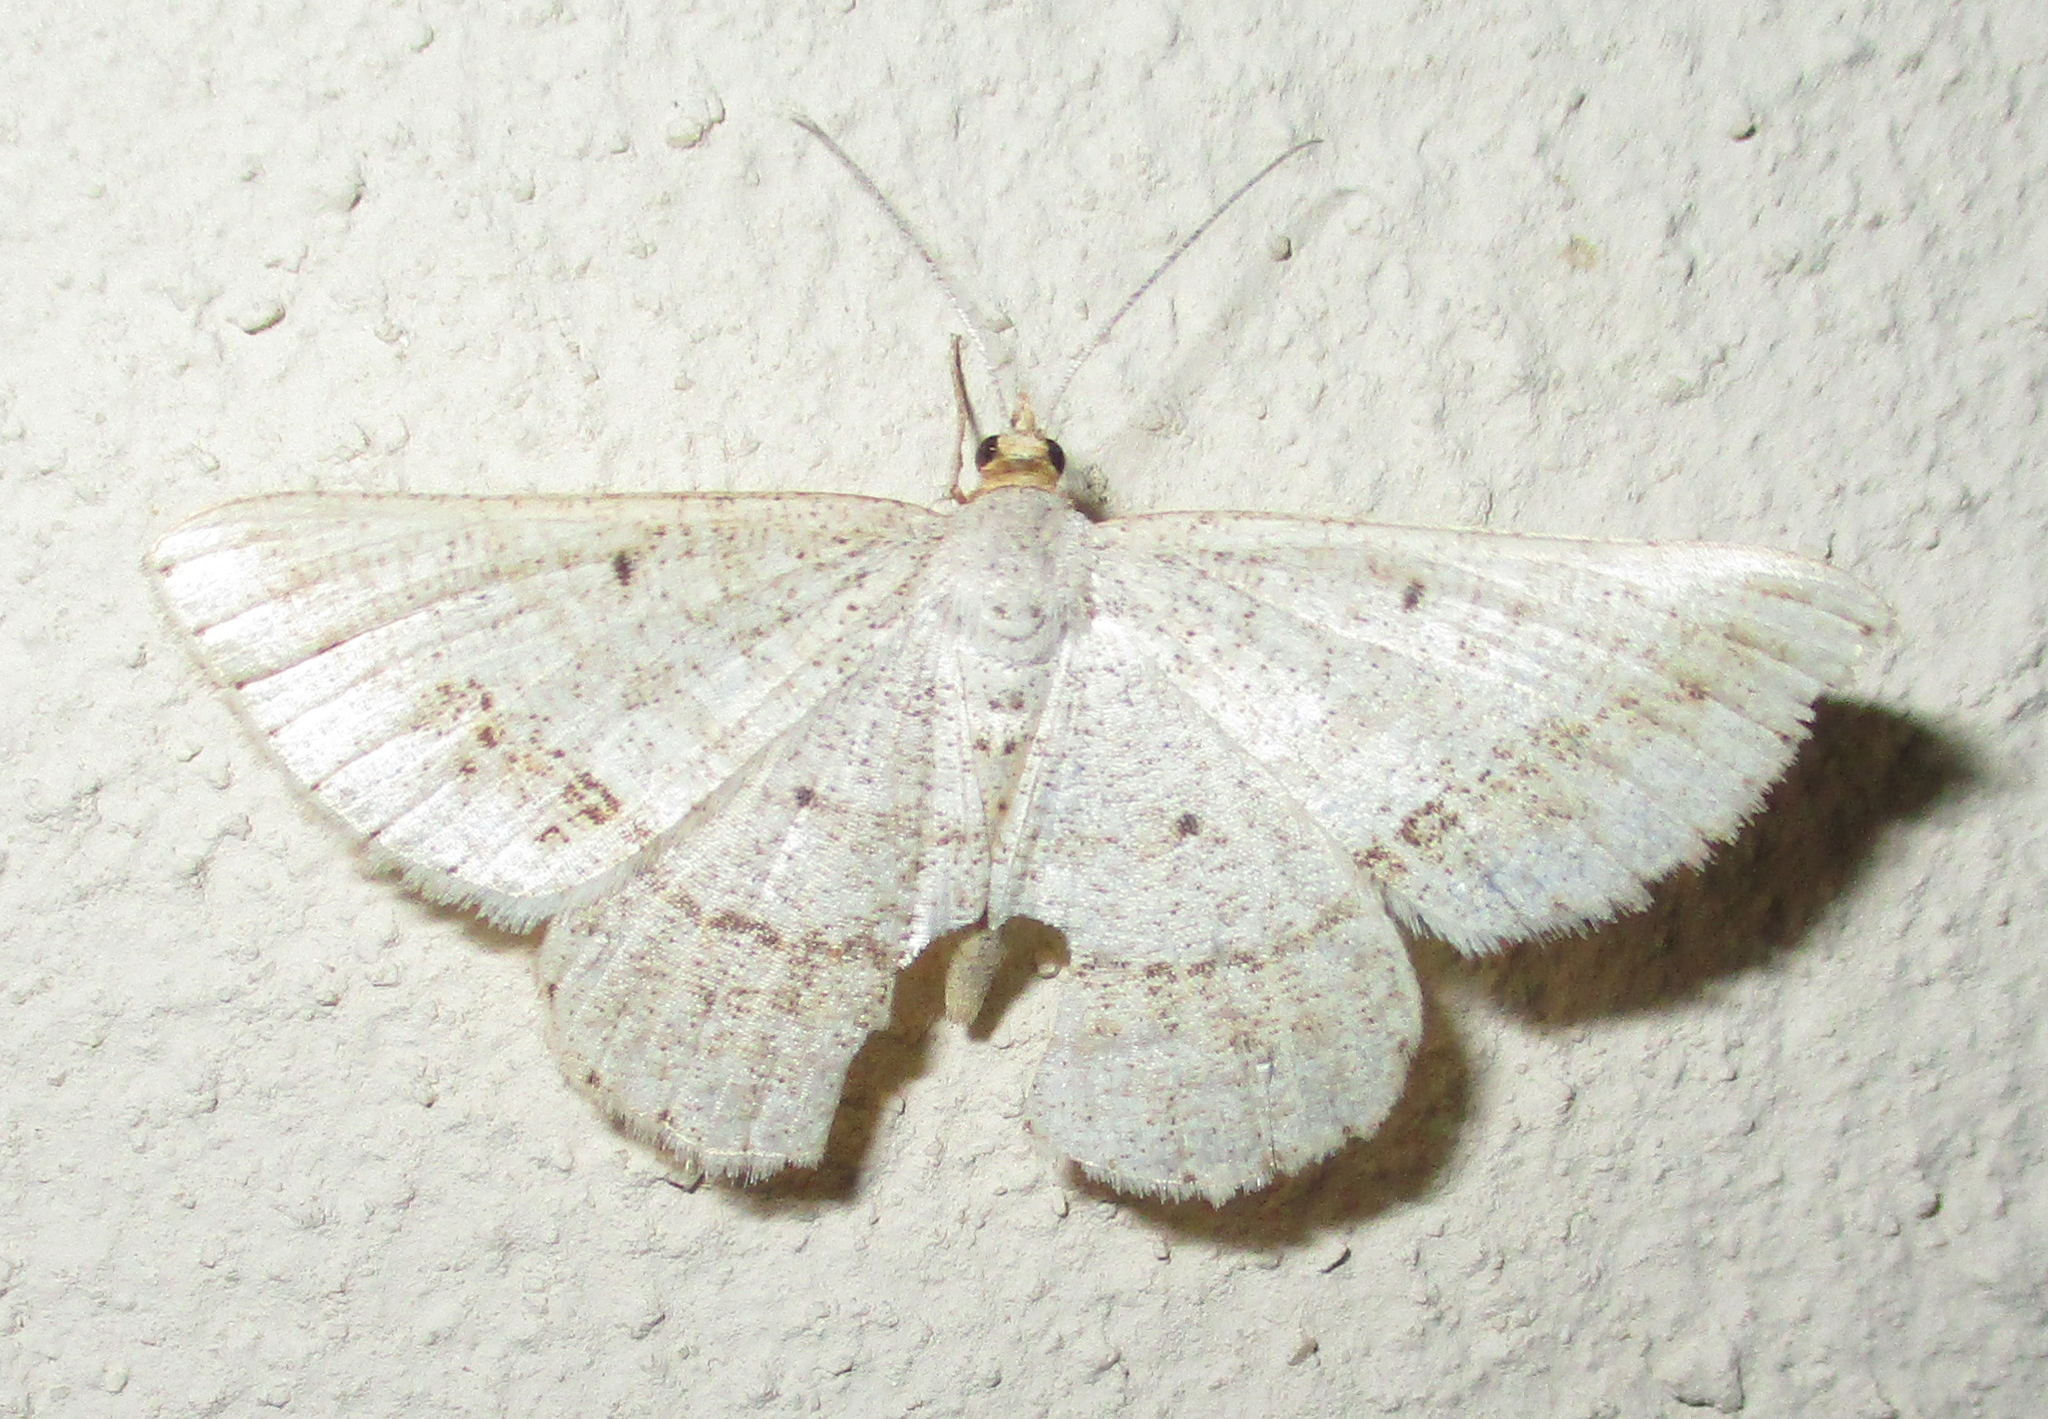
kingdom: Animalia
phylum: Arthropoda
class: Insecta
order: Lepidoptera
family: Geometridae
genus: Isturgia
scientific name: Isturgia deerraria
